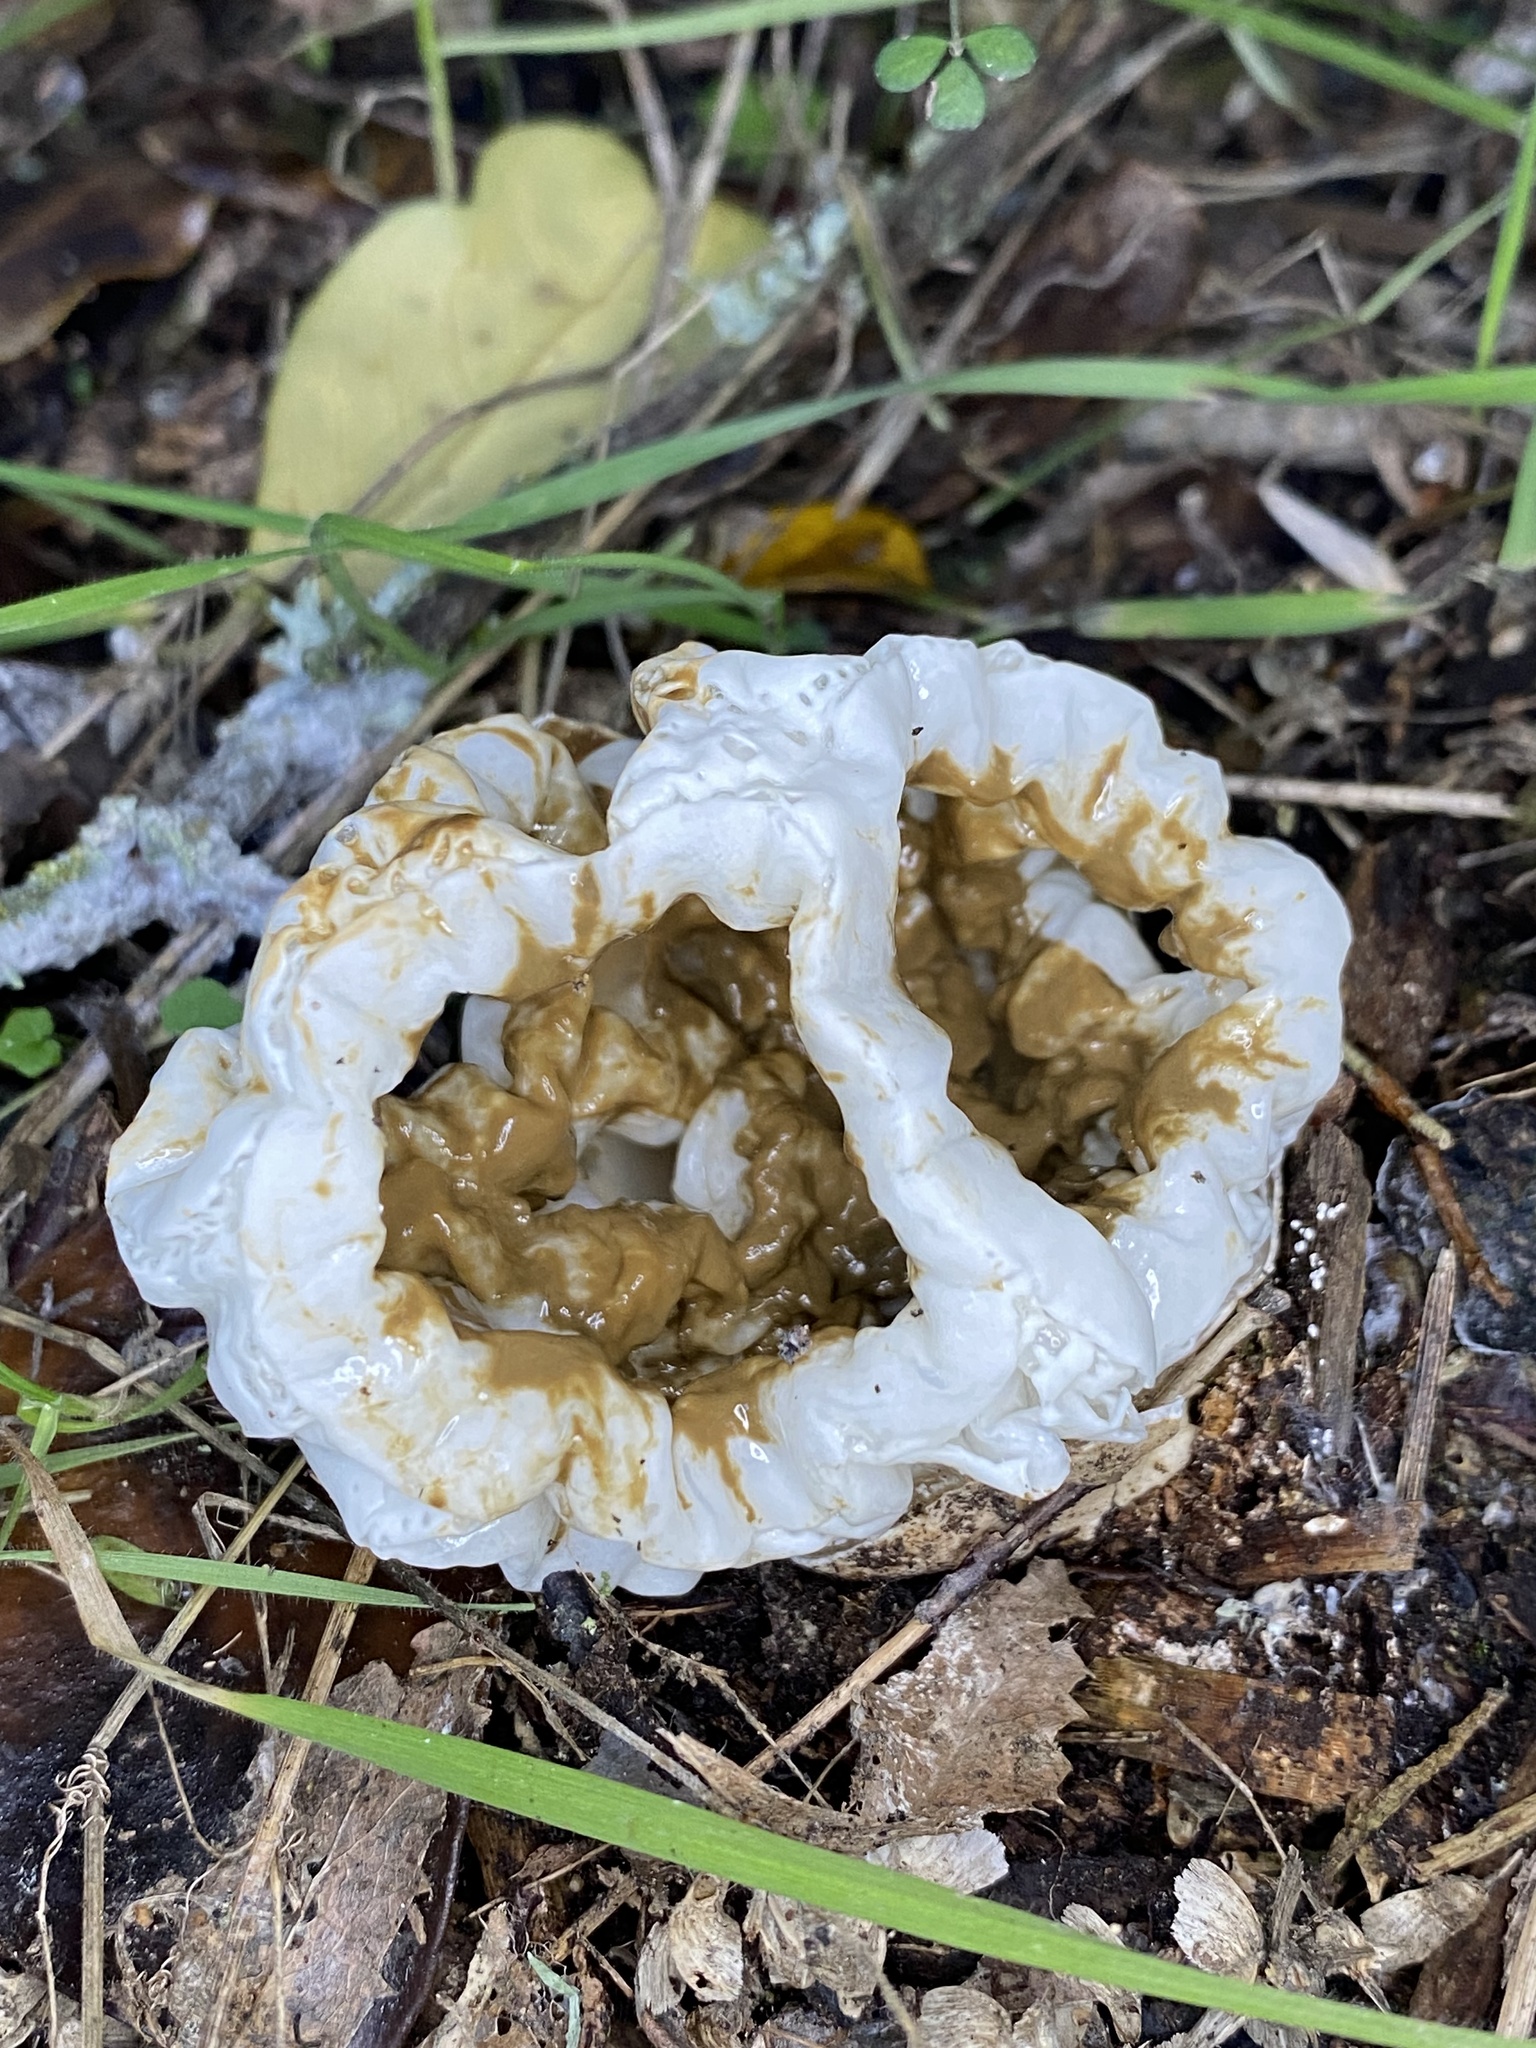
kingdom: Fungi
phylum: Basidiomycota
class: Agaricomycetes
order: Phallales
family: Phallaceae
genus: Ileodictyon
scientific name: Ileodictyon cibarium
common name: Basket fungus
